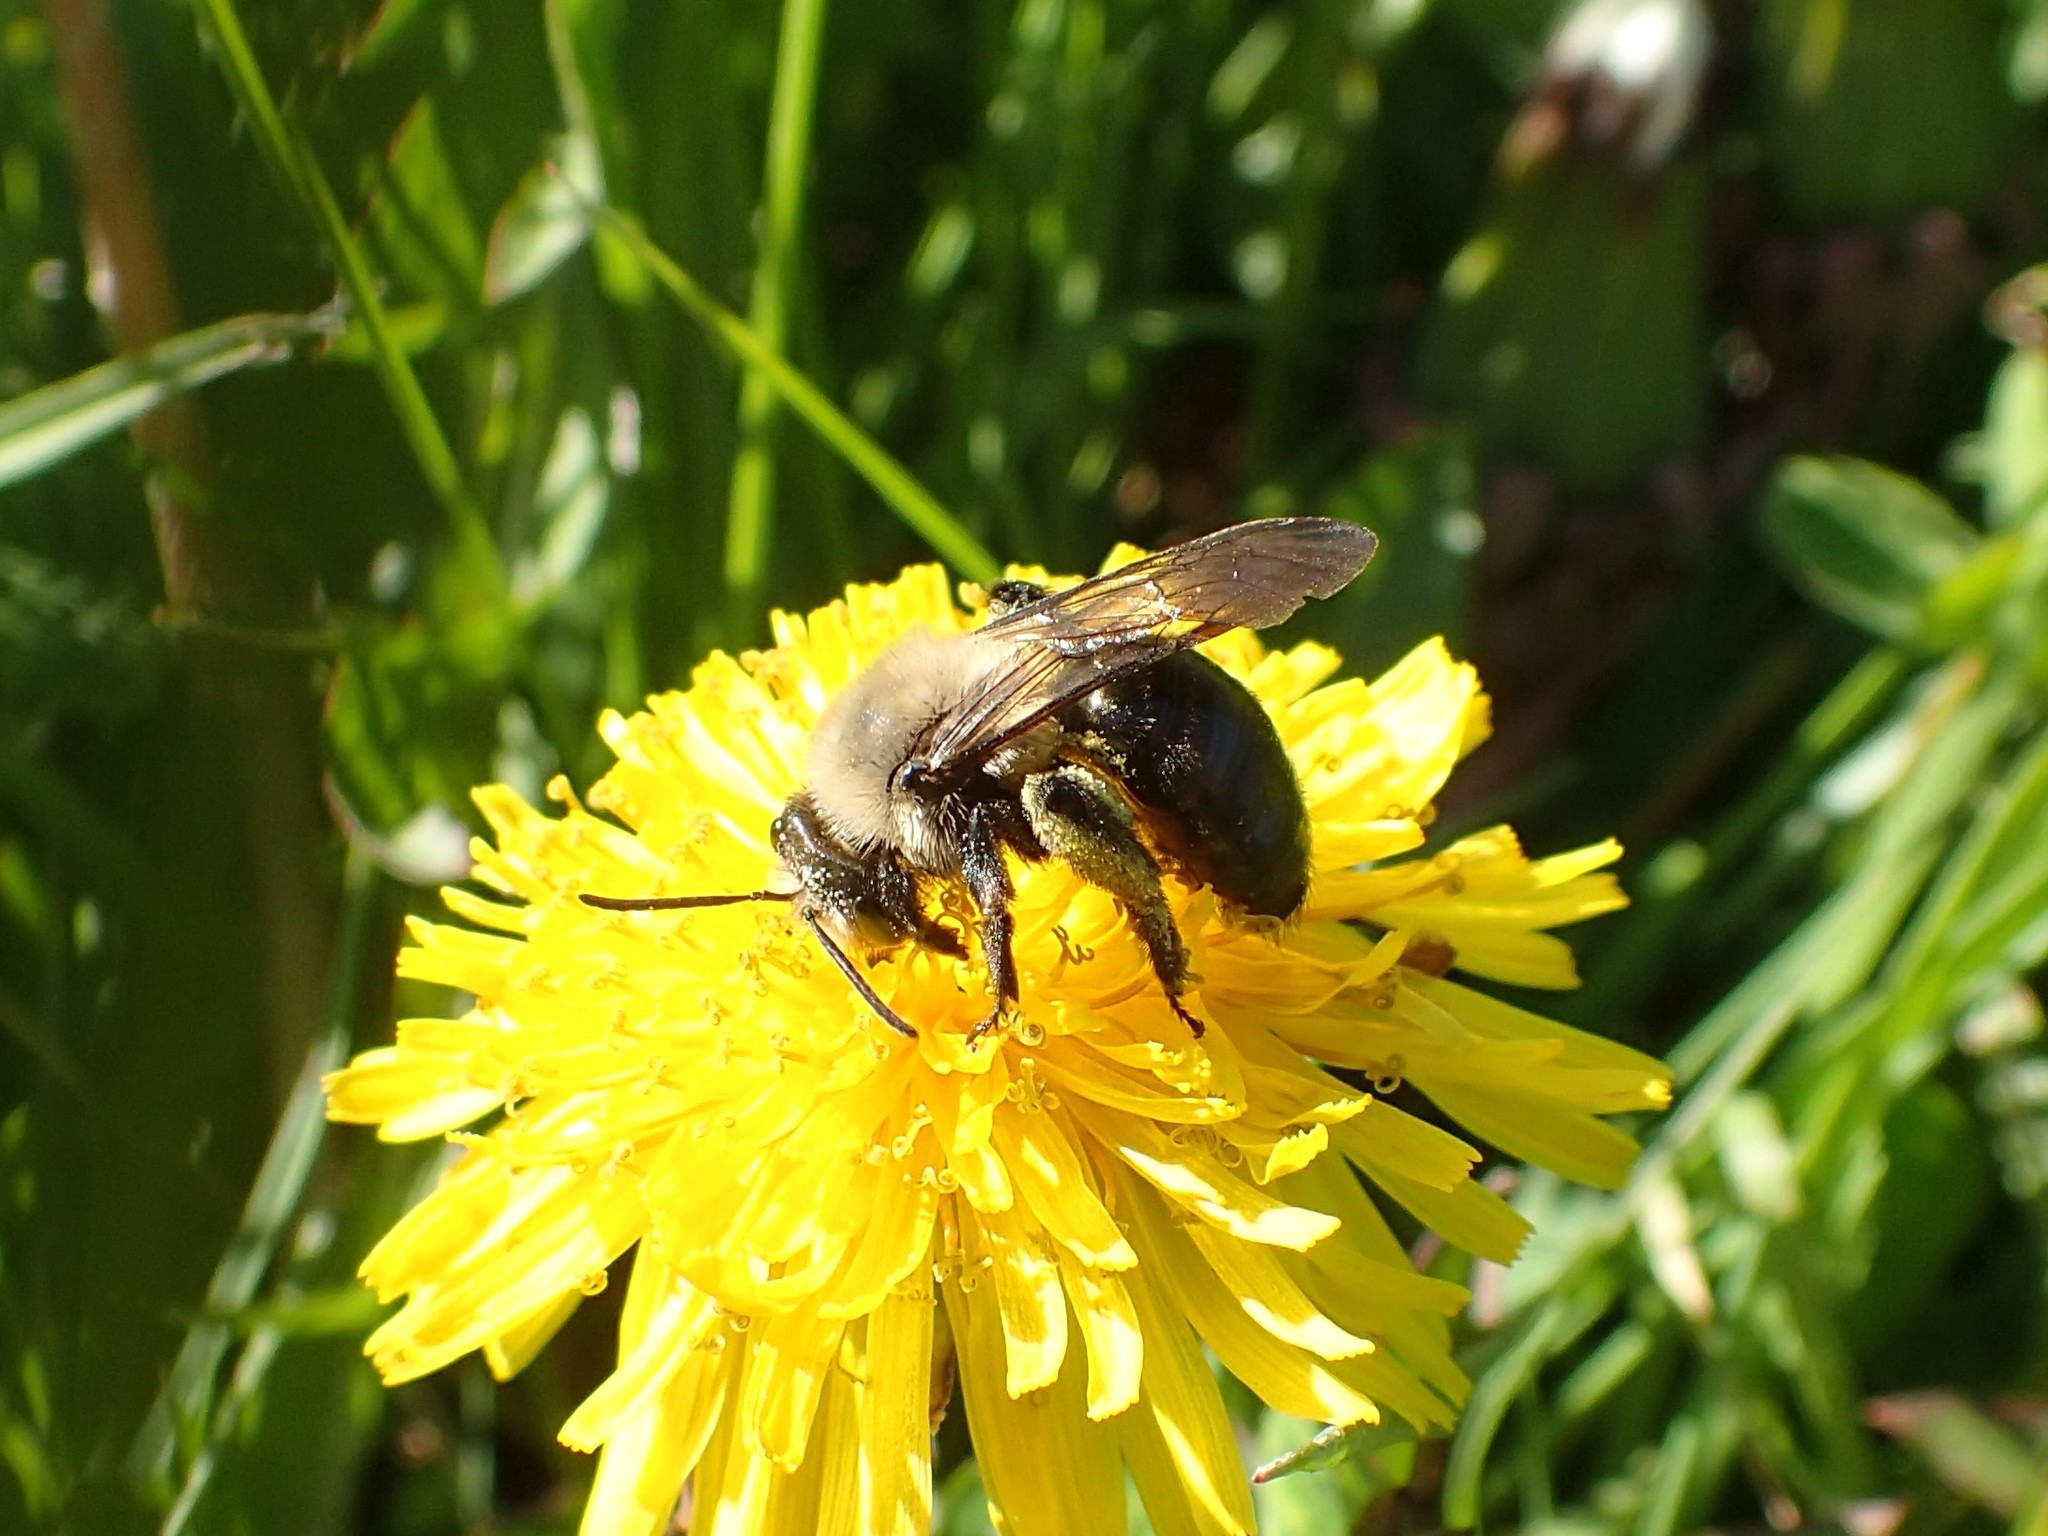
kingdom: Animalia
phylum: Arthropoda
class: Insecta
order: Hymenoptera
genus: Melandrena
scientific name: Melandrena
